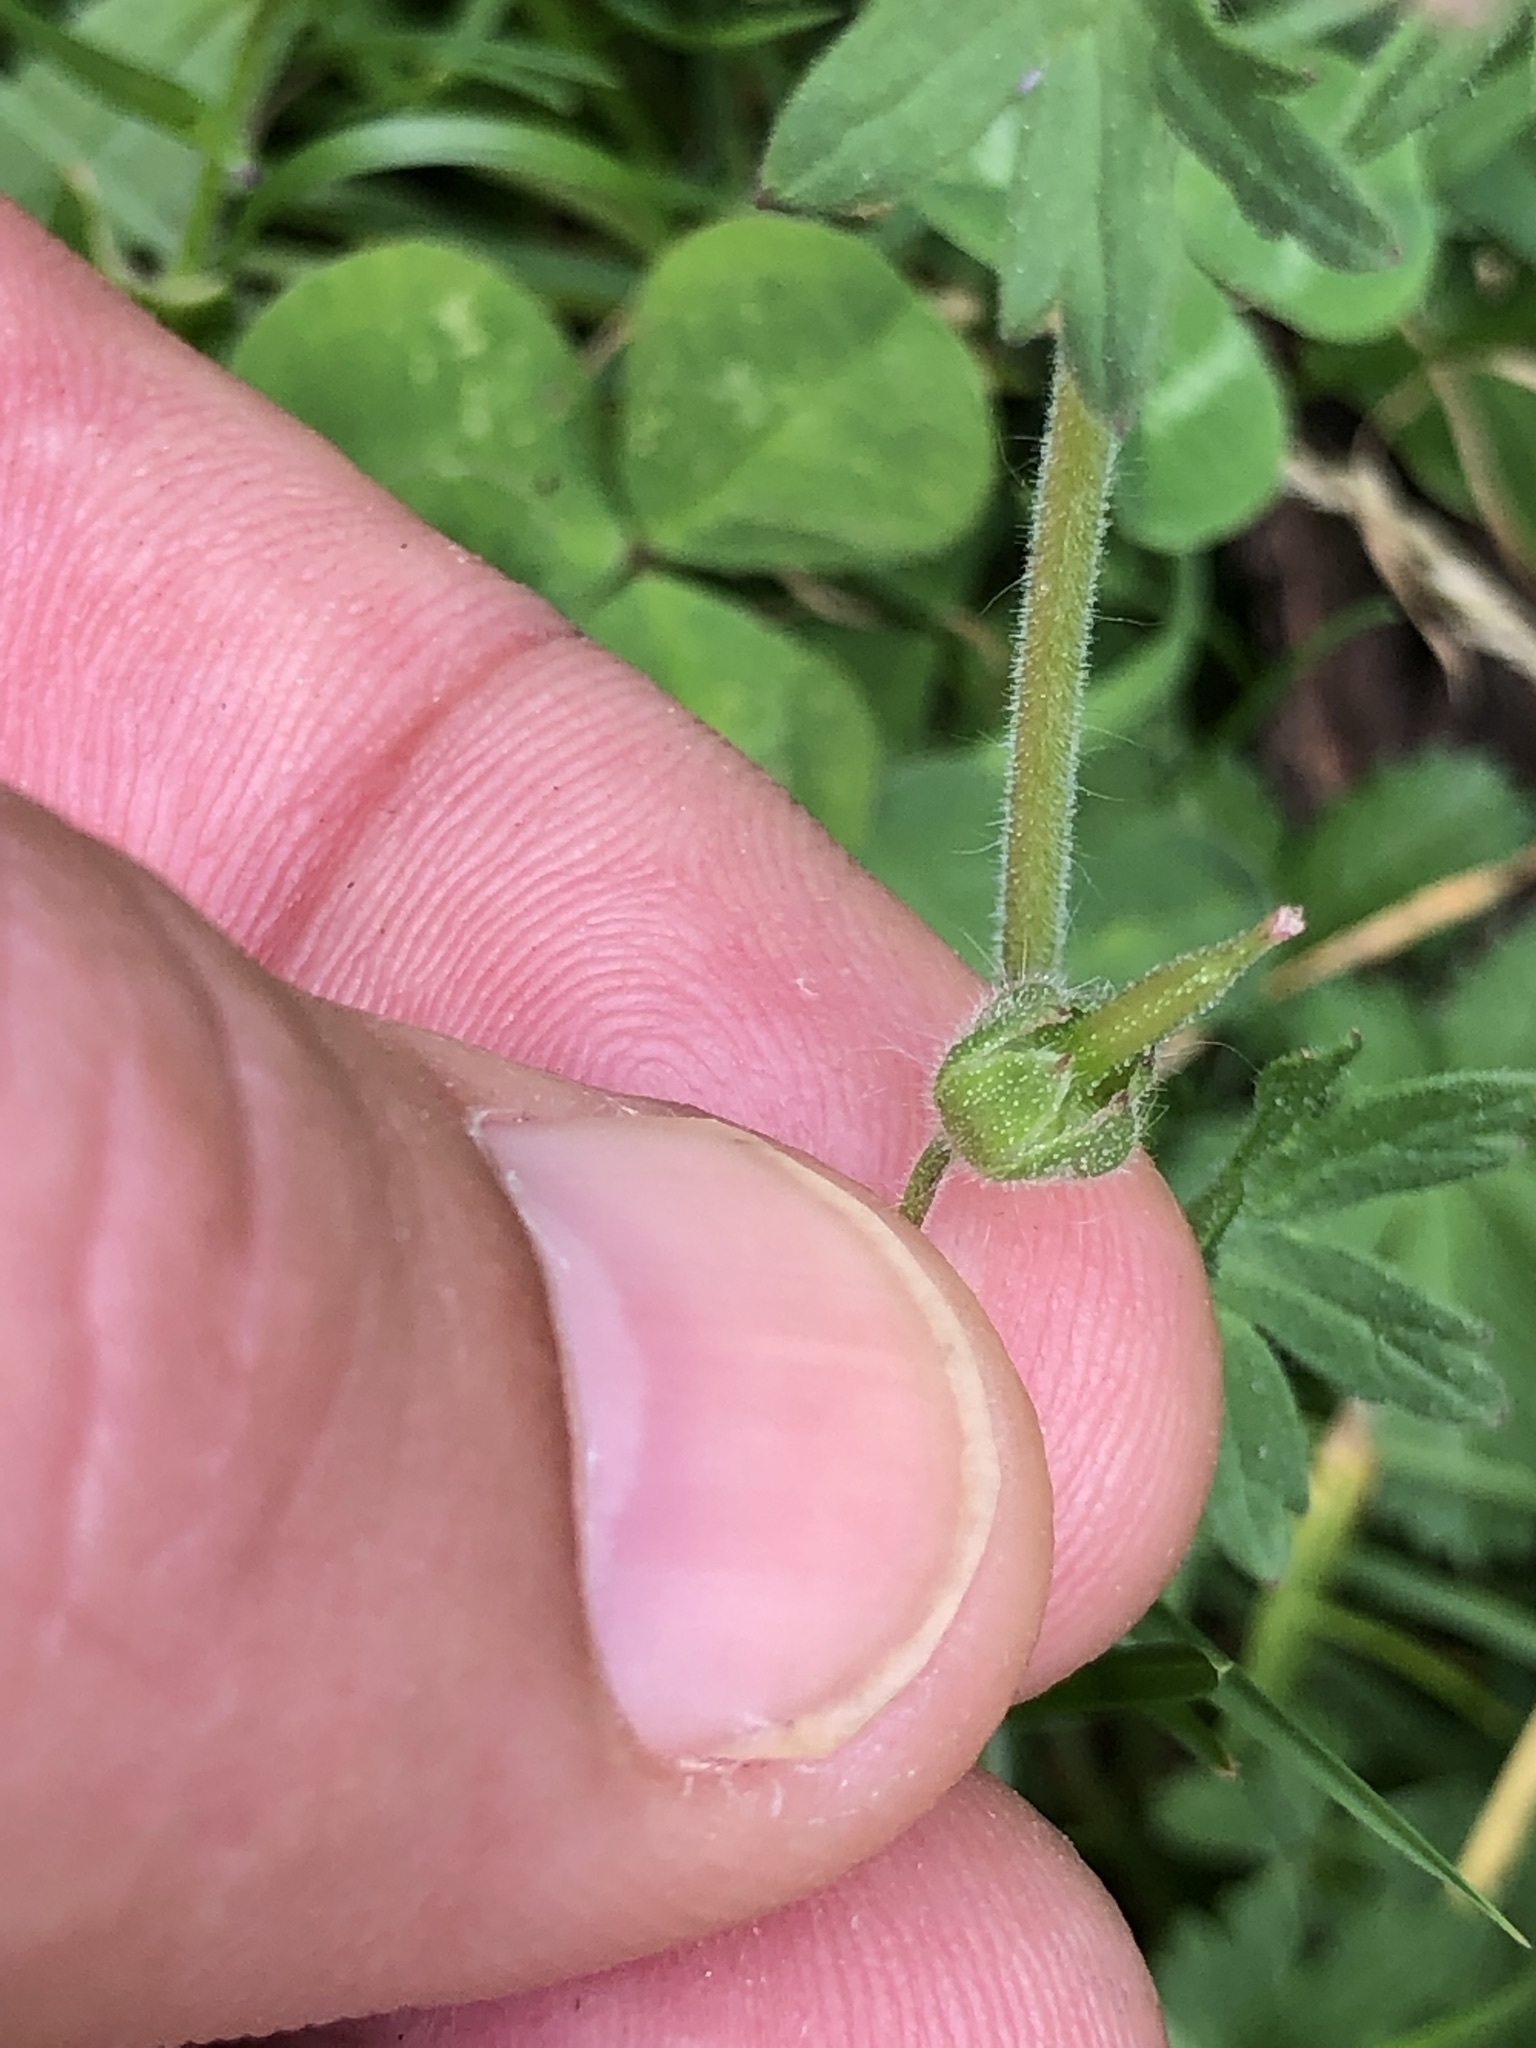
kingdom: Plantae
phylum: Tracheophyta
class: Magnoliopsida
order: Geraniales
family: Geraniaceae
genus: Geranium
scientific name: Geranium molle
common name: Dove's-foot crane's-bill
